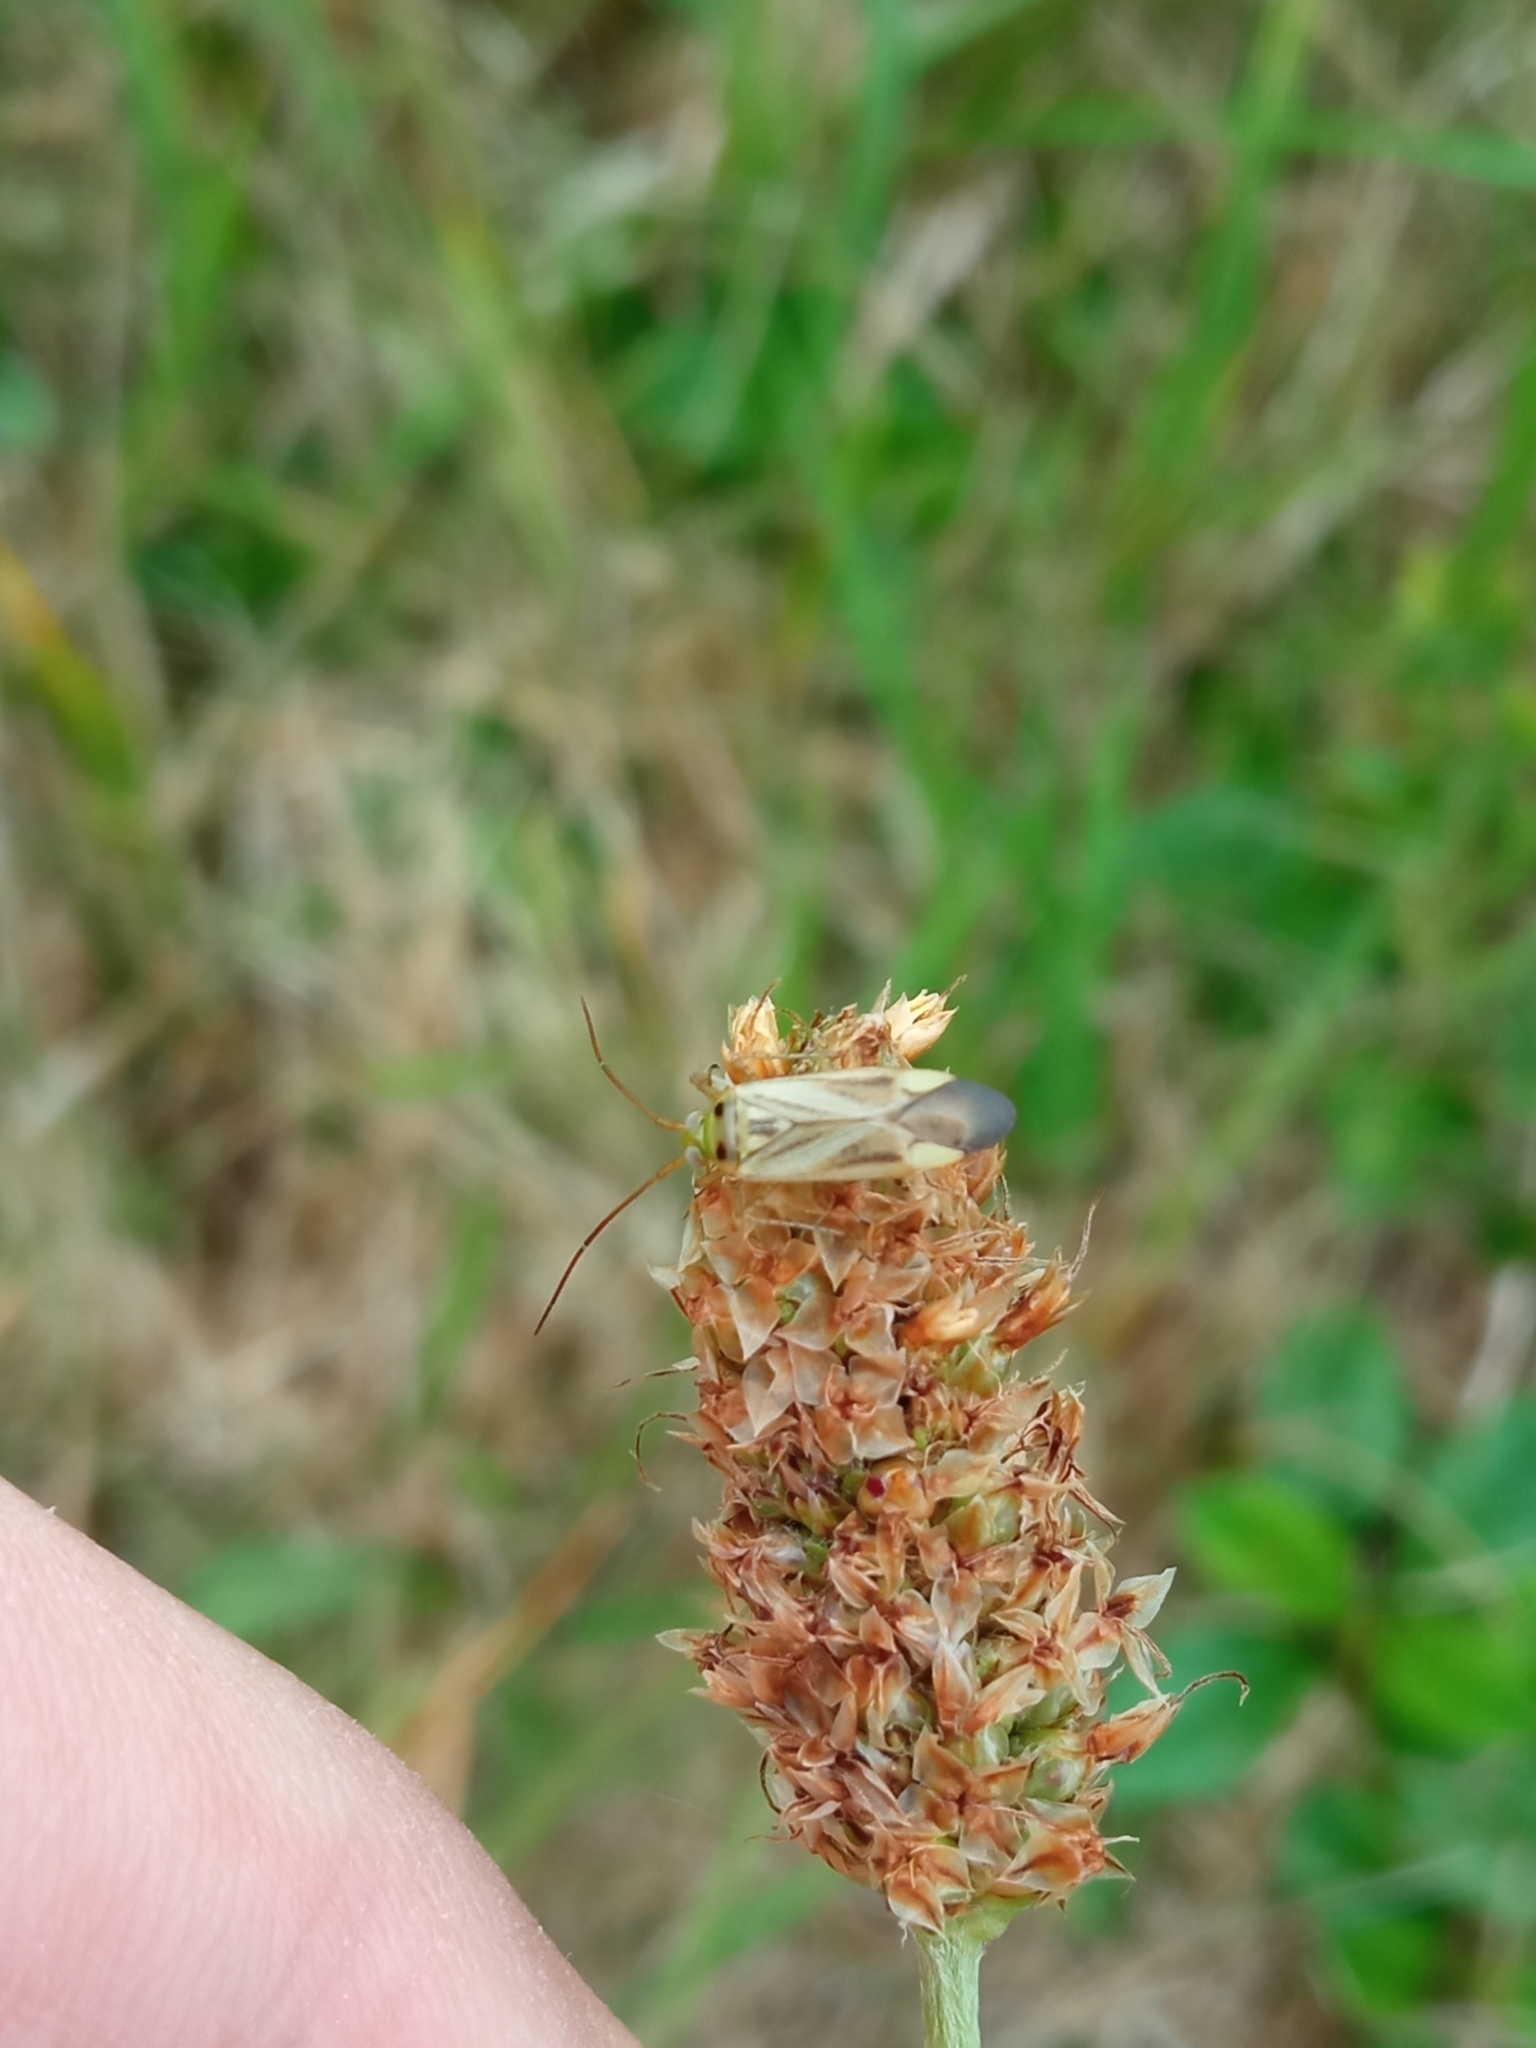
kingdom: Animalia
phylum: Arthropoda
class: Insecta
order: Hemiptera
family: Miridae
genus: Adelphocoris
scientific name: Adelphocoris lineolatus
